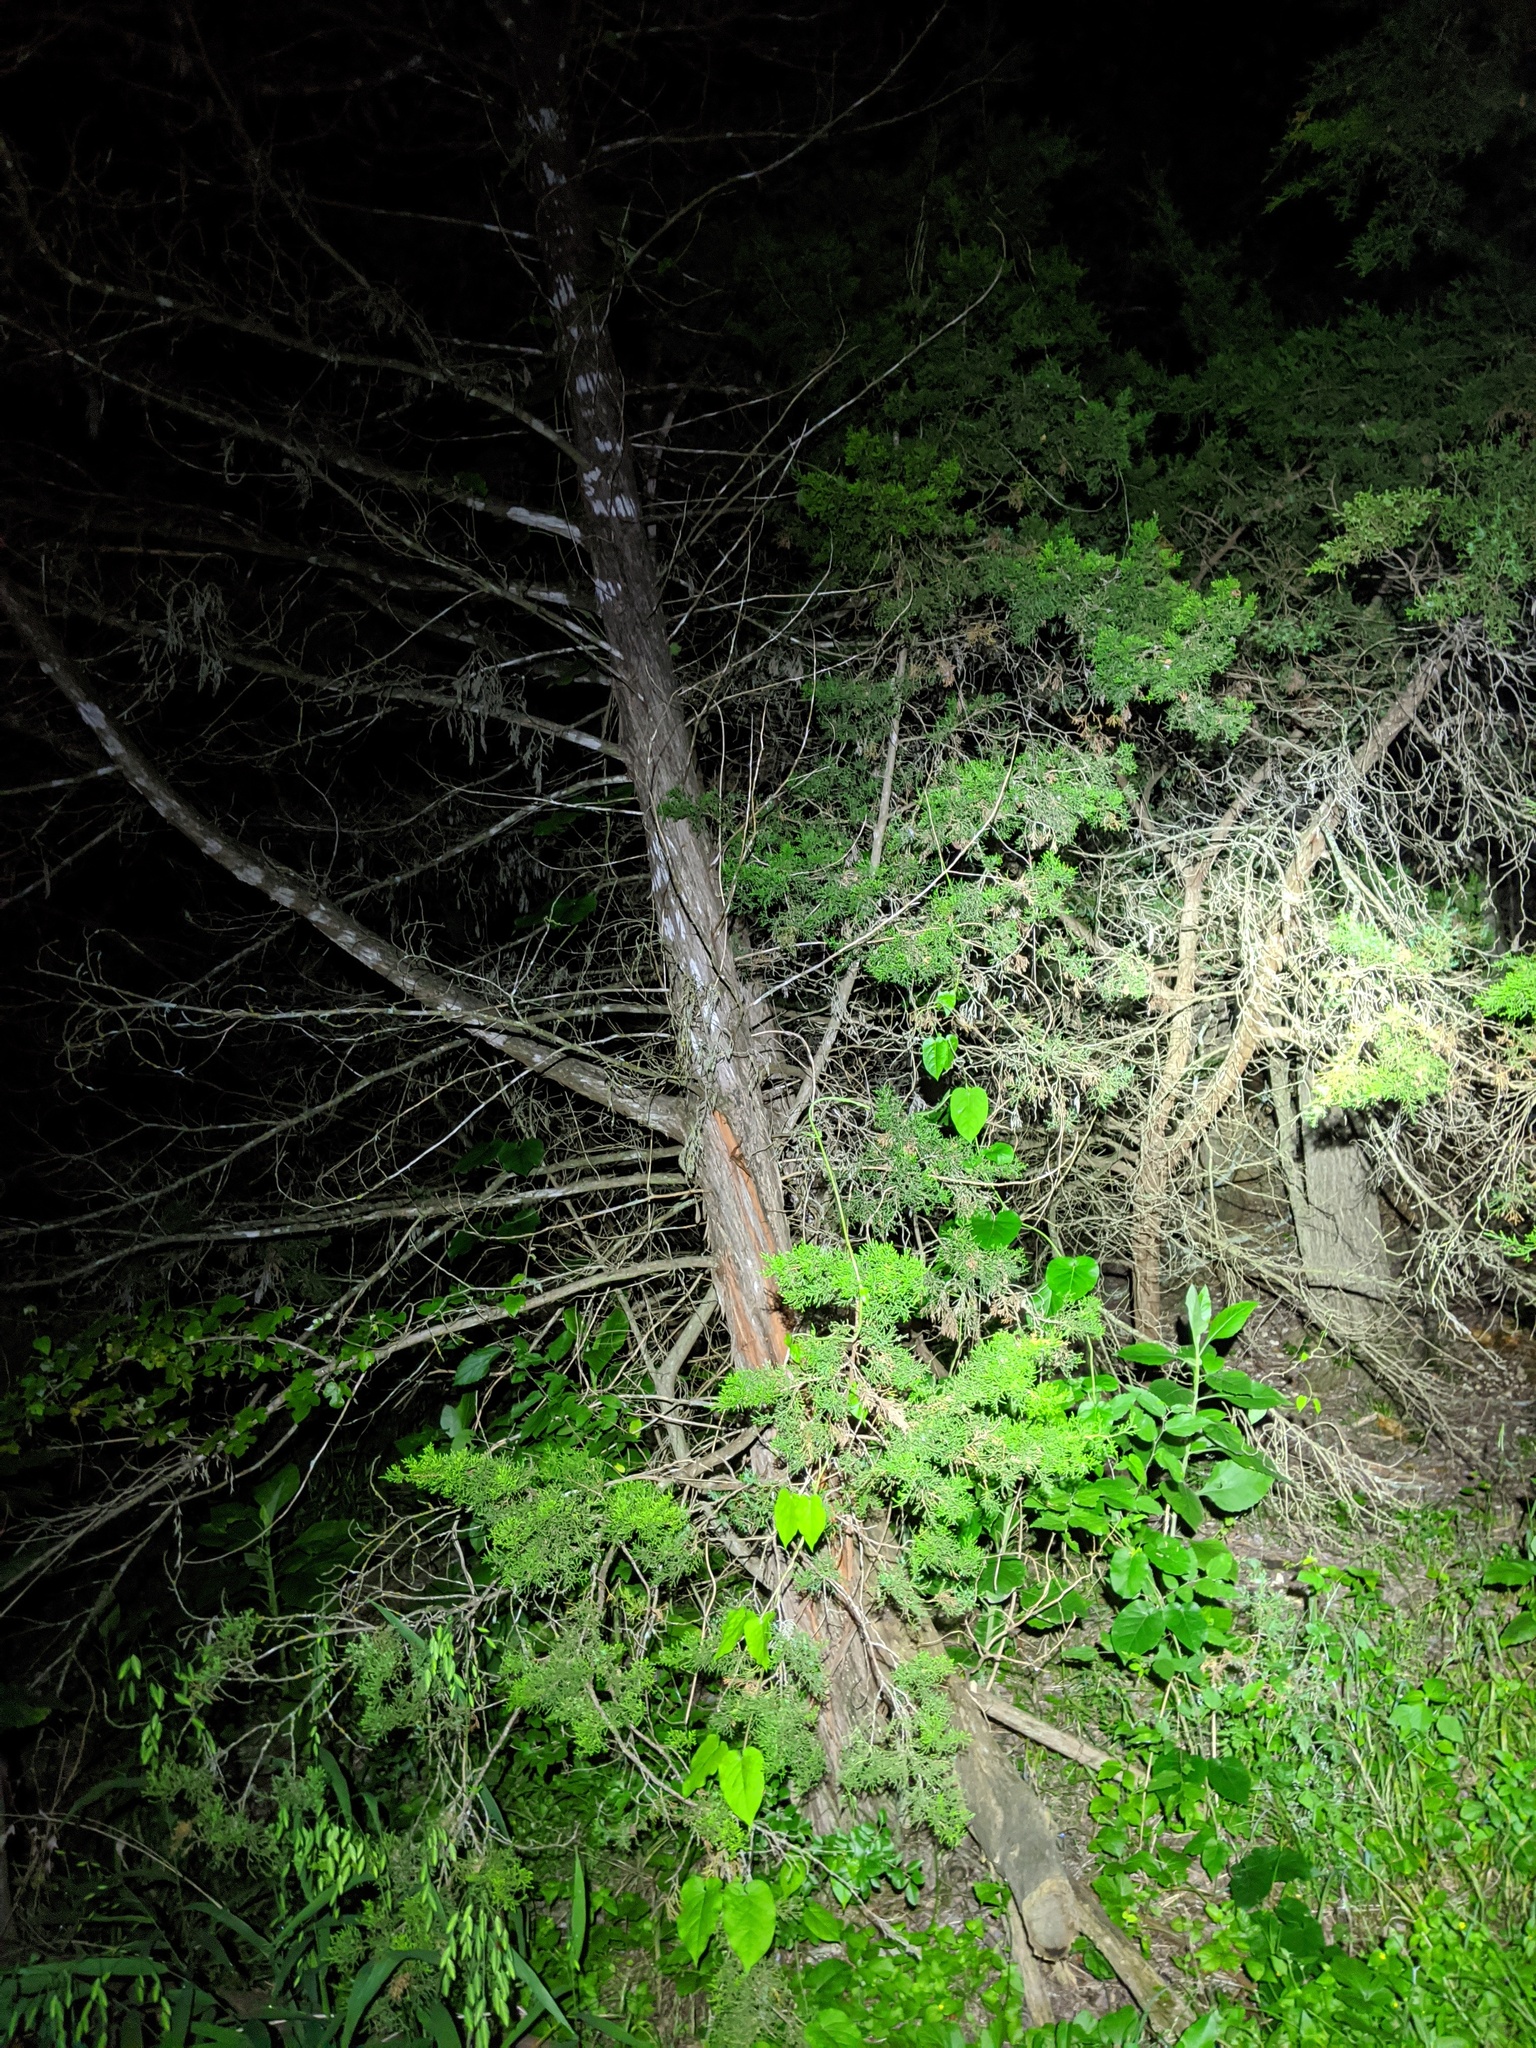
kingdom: Plantae
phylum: Tracheophyta
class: Magnoliopsida
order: Gentianales
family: Apocynaceae
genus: Gonolobus
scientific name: Gonolobus suberosus
